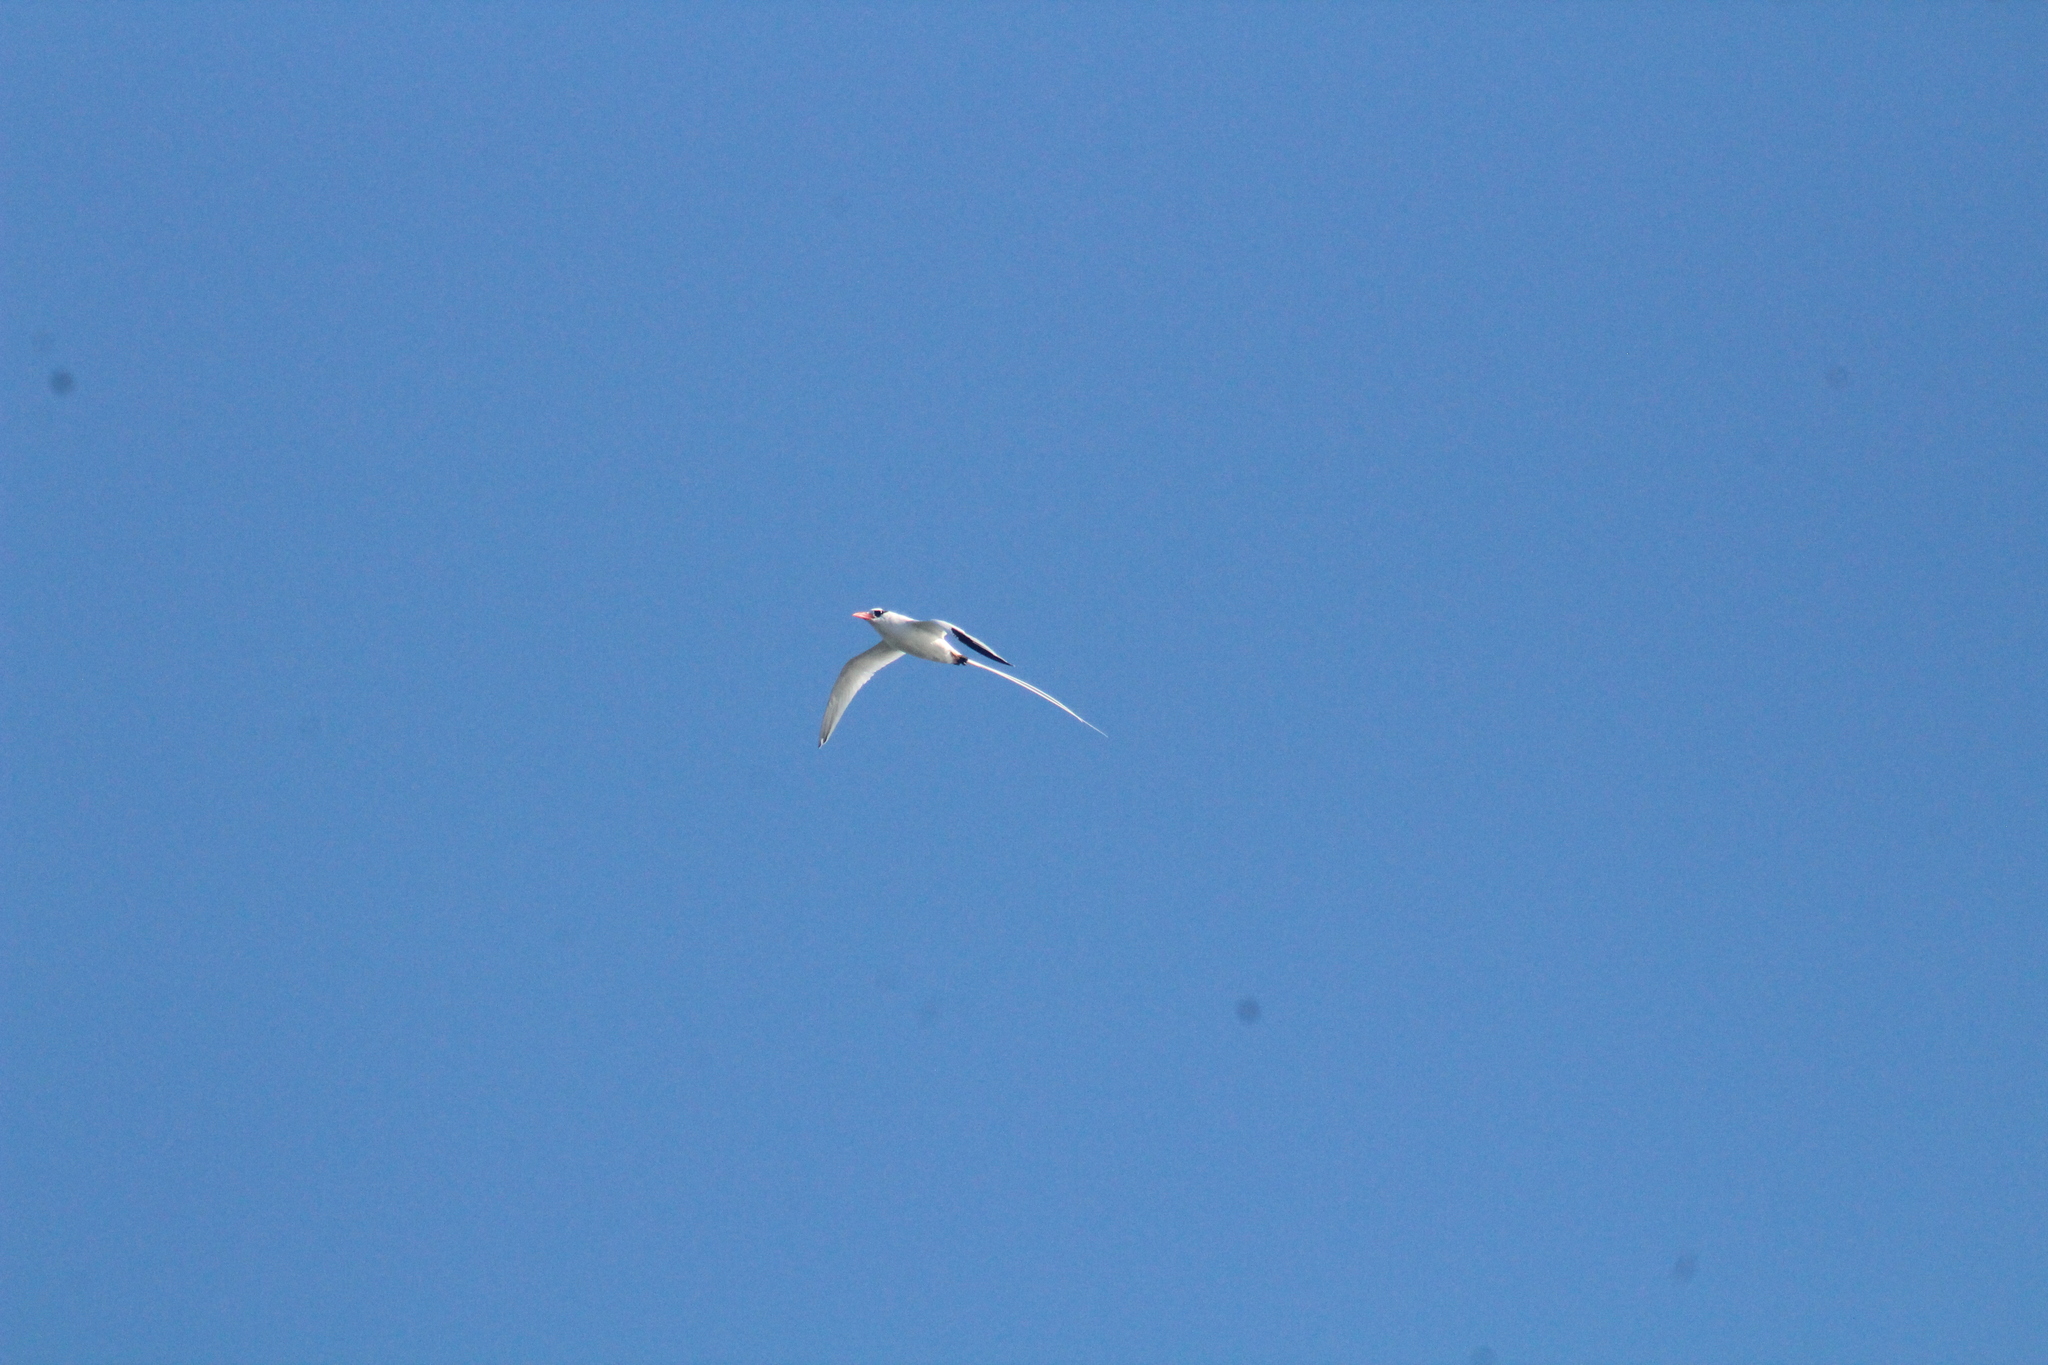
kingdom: Animalia
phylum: Chordata
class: Aves
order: Phaethontiformes
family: Phaethontidae
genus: Phaethon
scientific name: Phaethon aethereus
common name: Red-billed tropicbird
